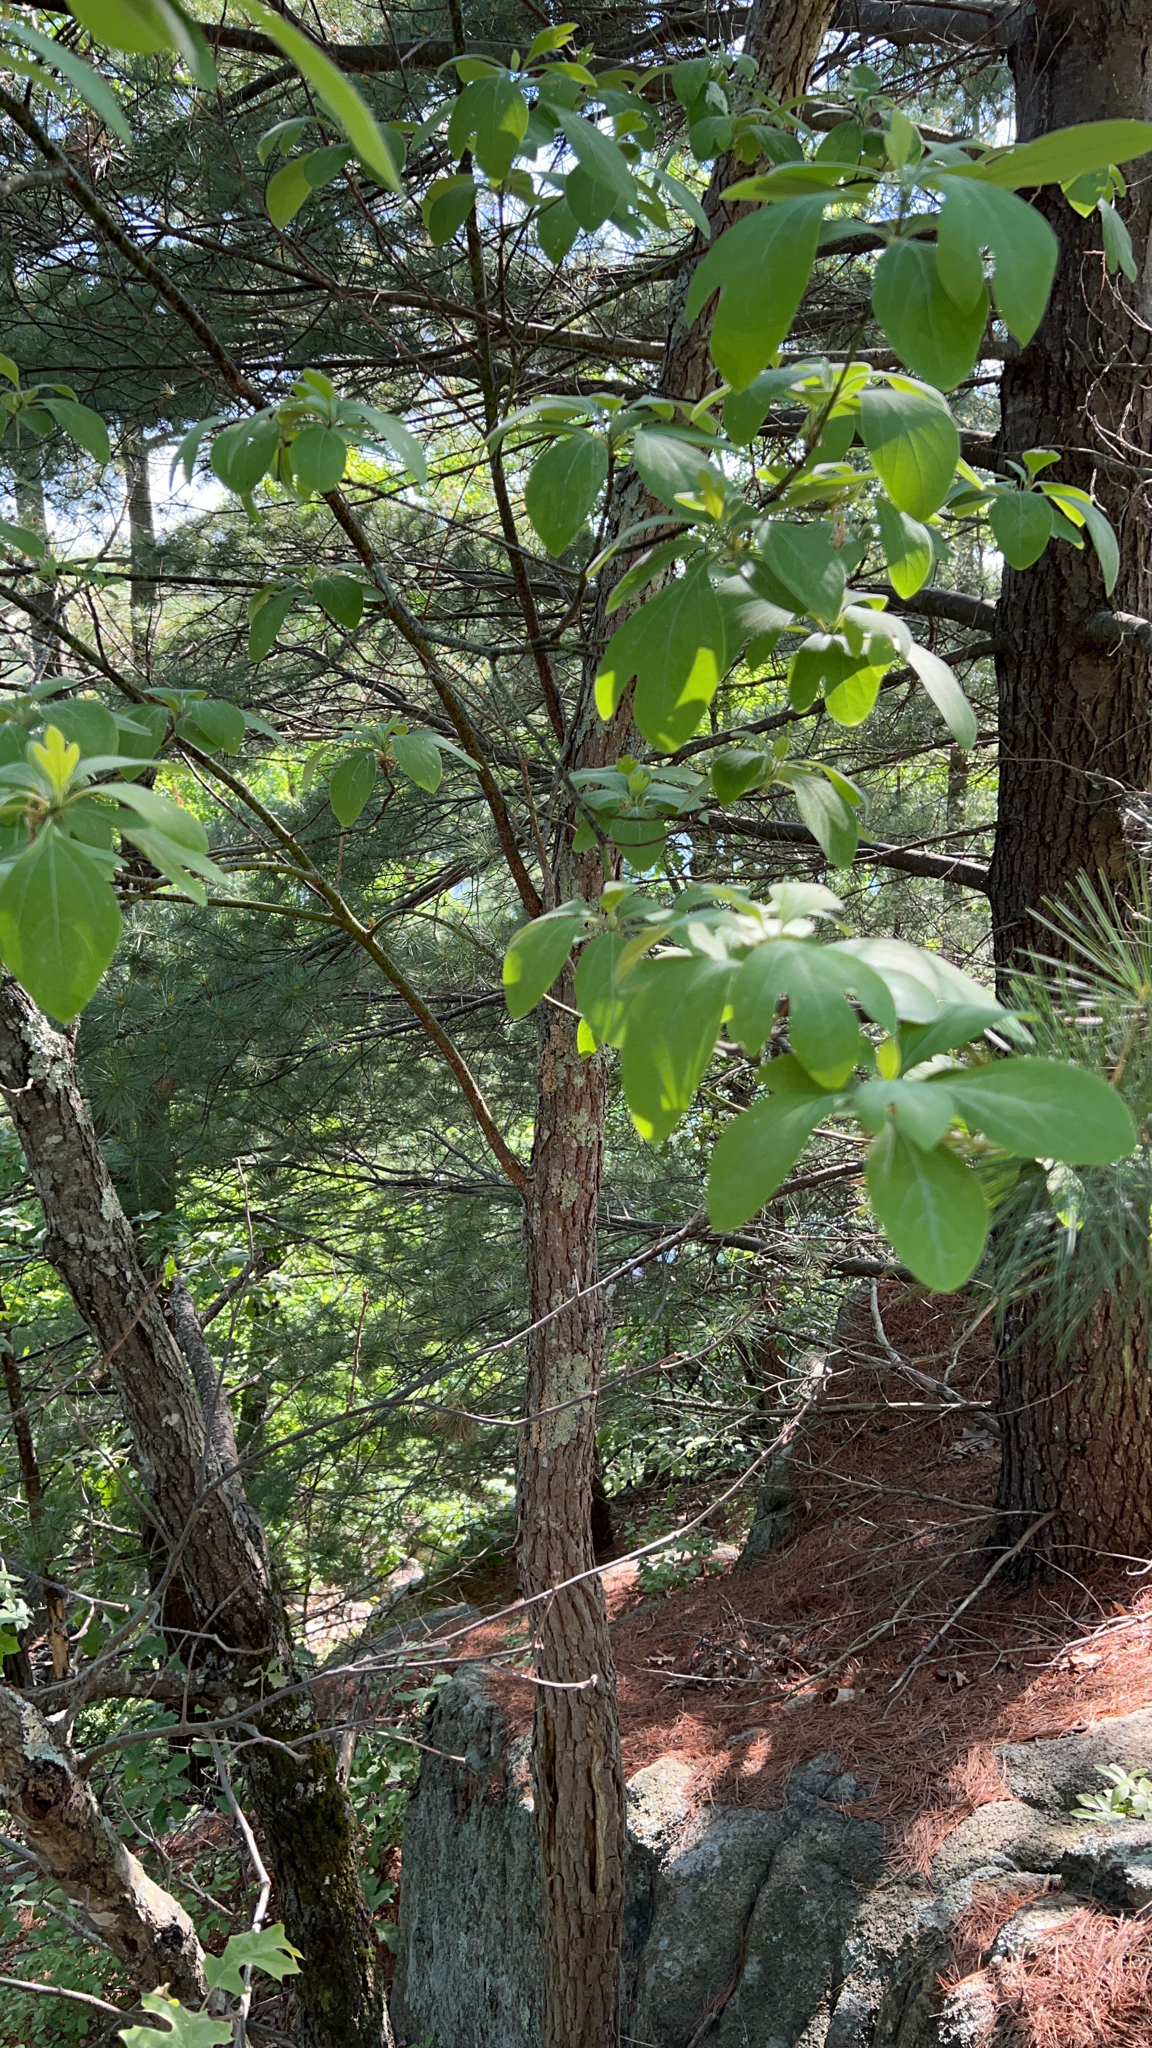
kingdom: Plantae
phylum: Tracheophyta
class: Magnoliopsida
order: Laurales
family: Lauraceae
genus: Sassafras
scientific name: Sassafras albidum
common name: Sassafras
